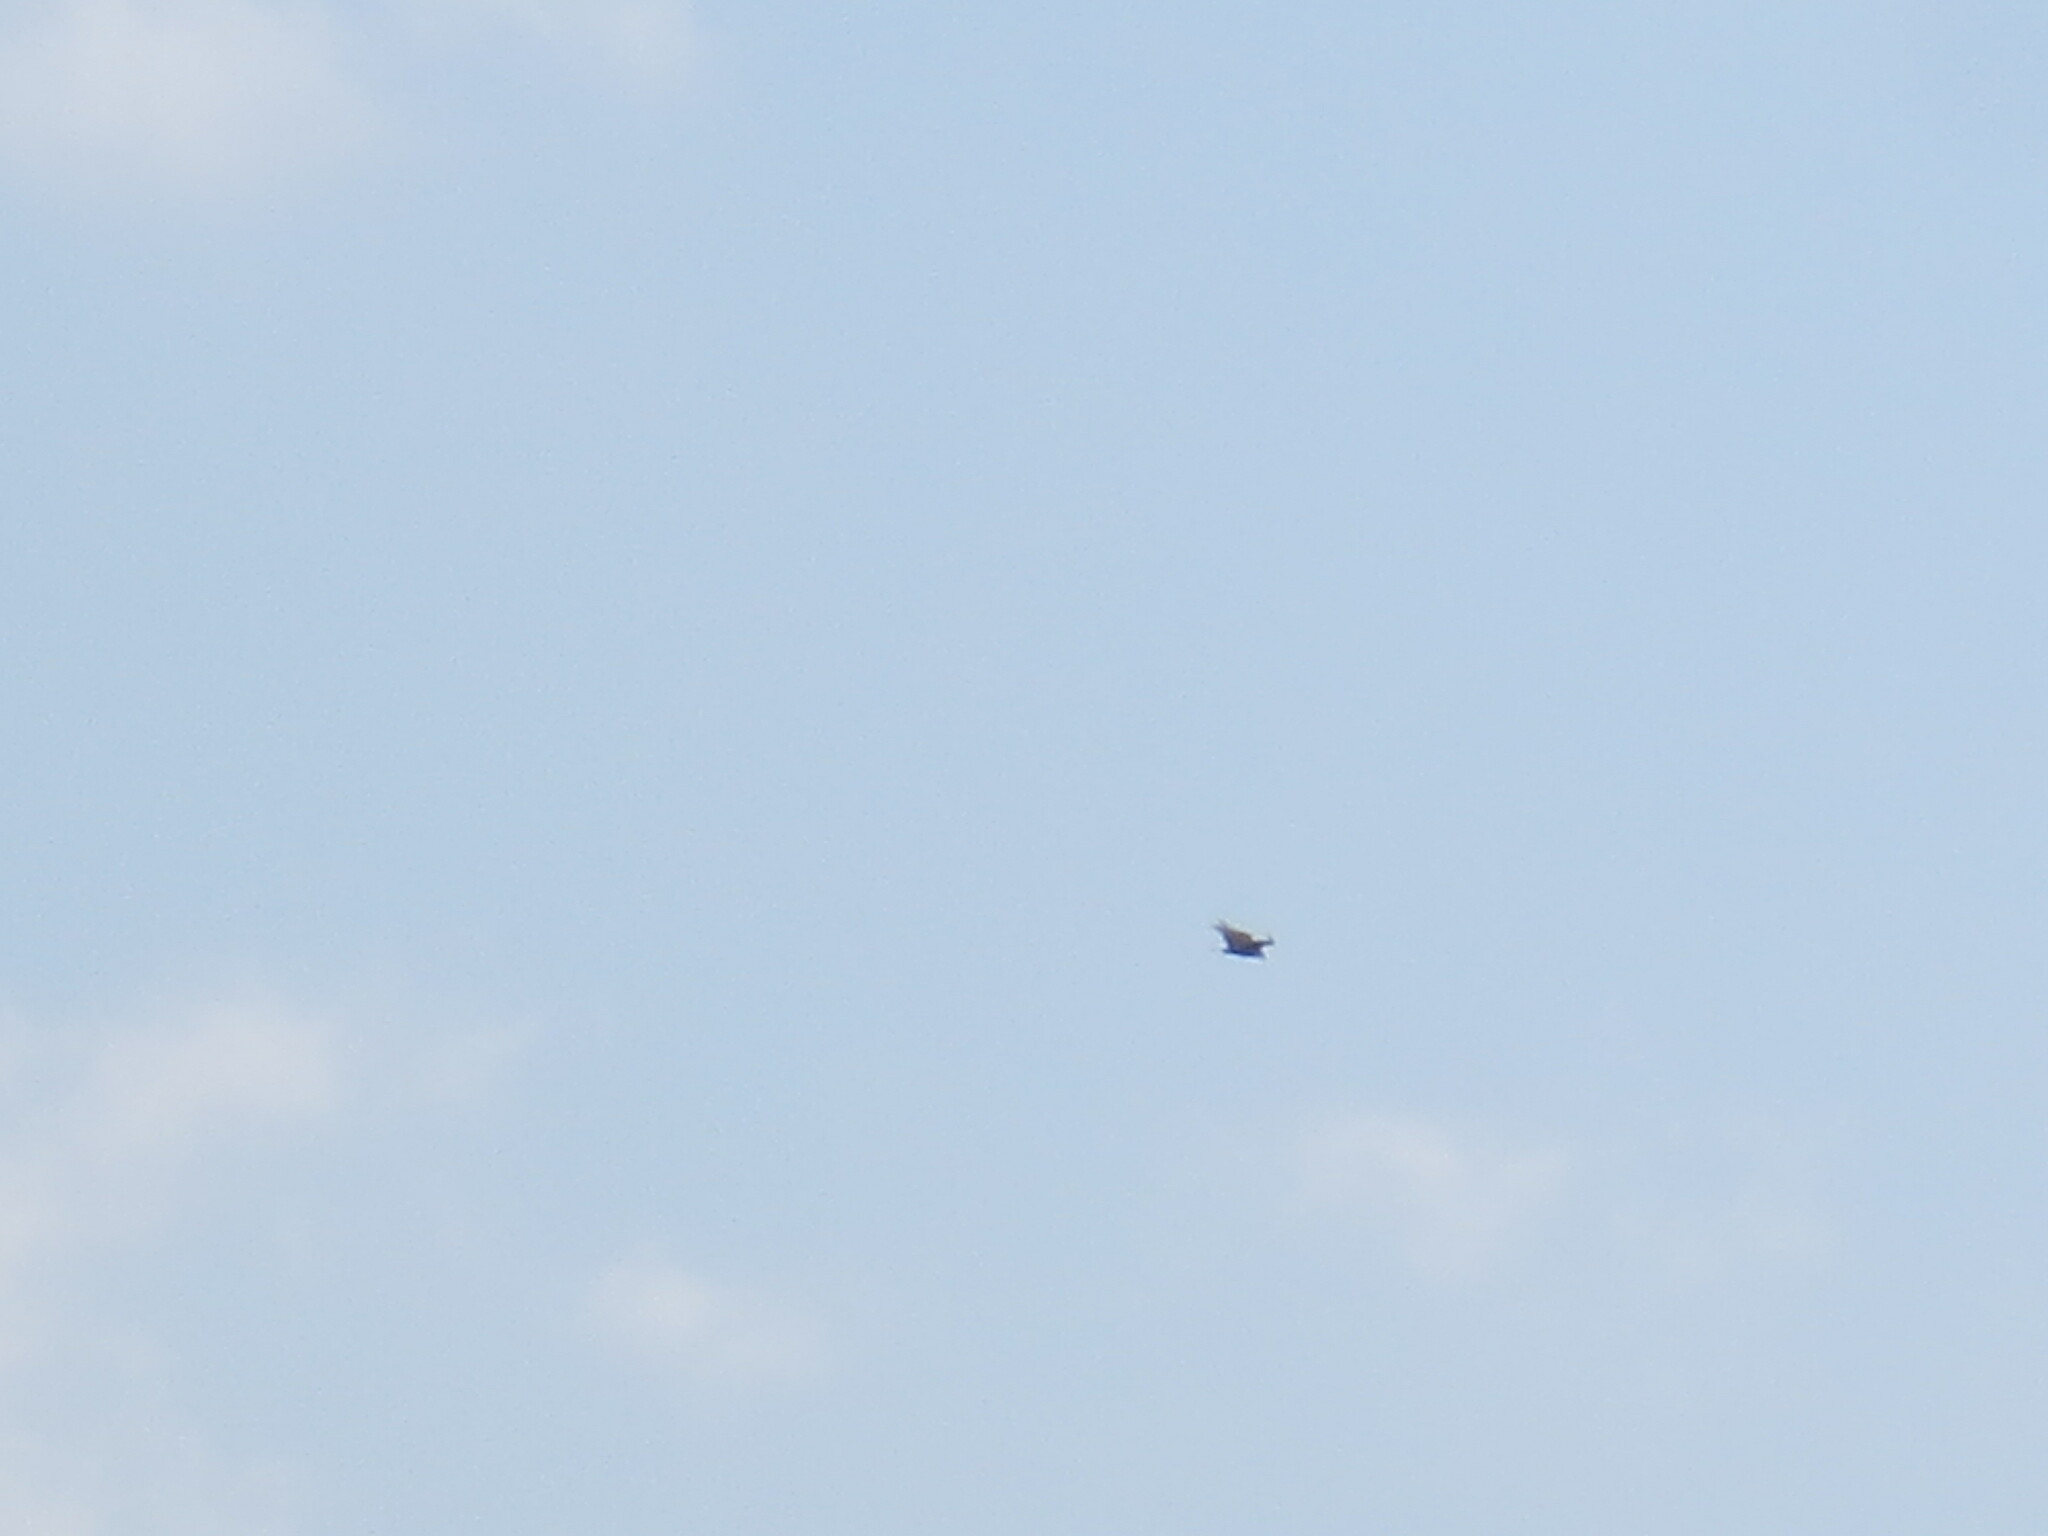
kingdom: Animalia
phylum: Chordata
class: Aves
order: Accipitriformes
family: Cathartidae
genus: Cathartes
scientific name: Cathartes aura
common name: Turkey vulture
